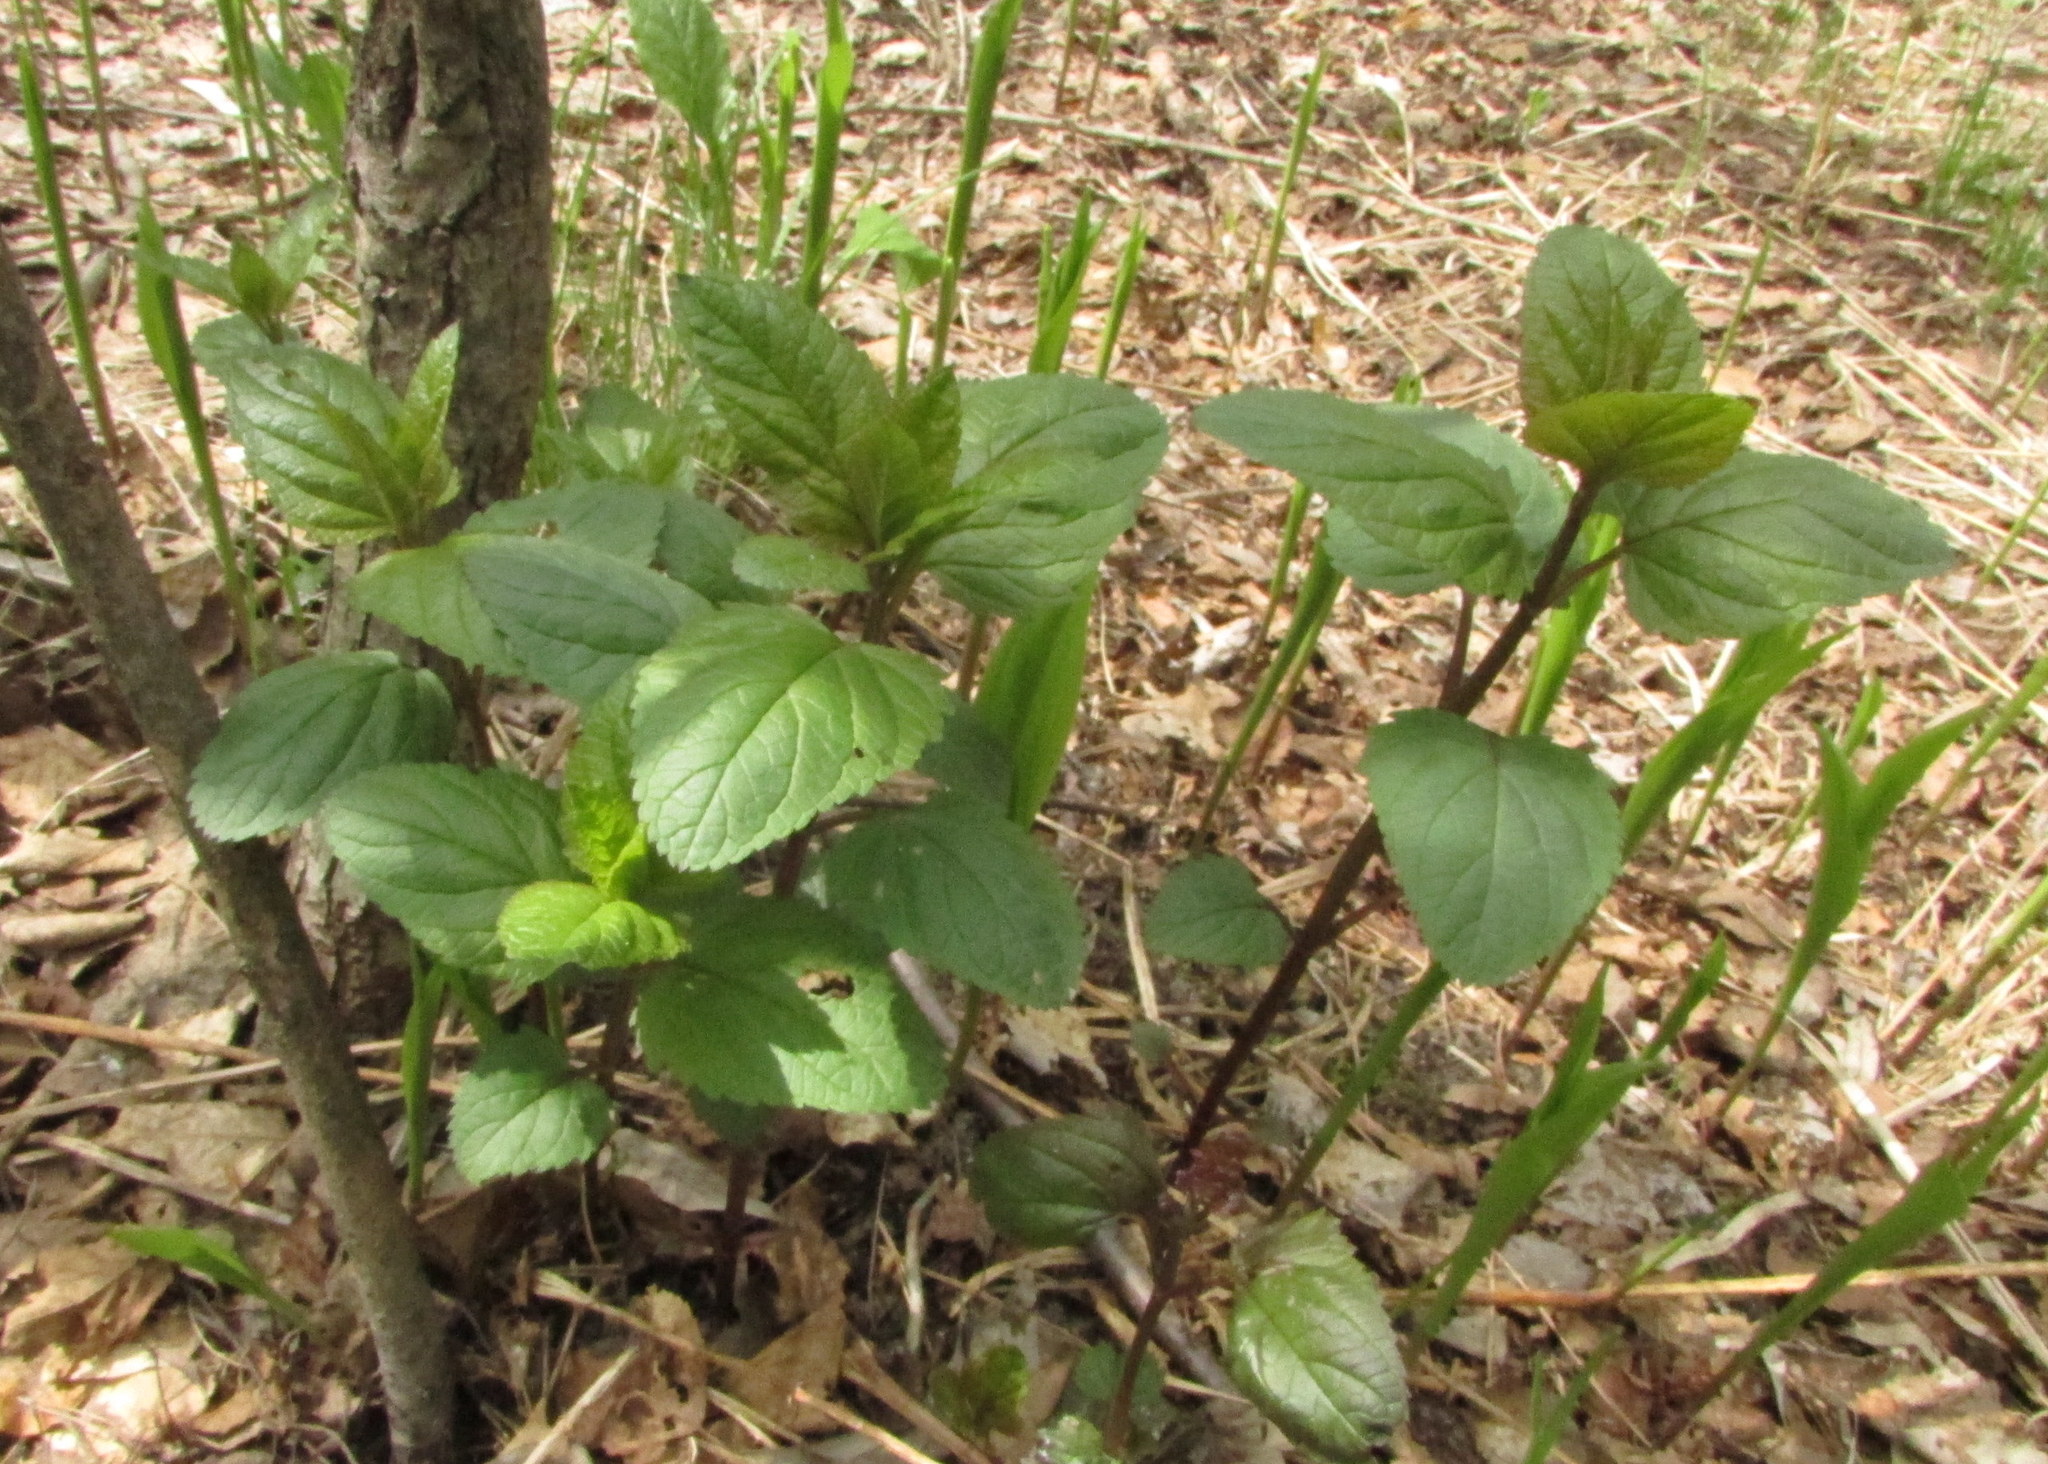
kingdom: Plantae
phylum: Tracheophyta
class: Magnoliopsida
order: Lamiales
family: Scrophulariaceae
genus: Scrophularia
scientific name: Scrophularia nodosa
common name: Common figwort
